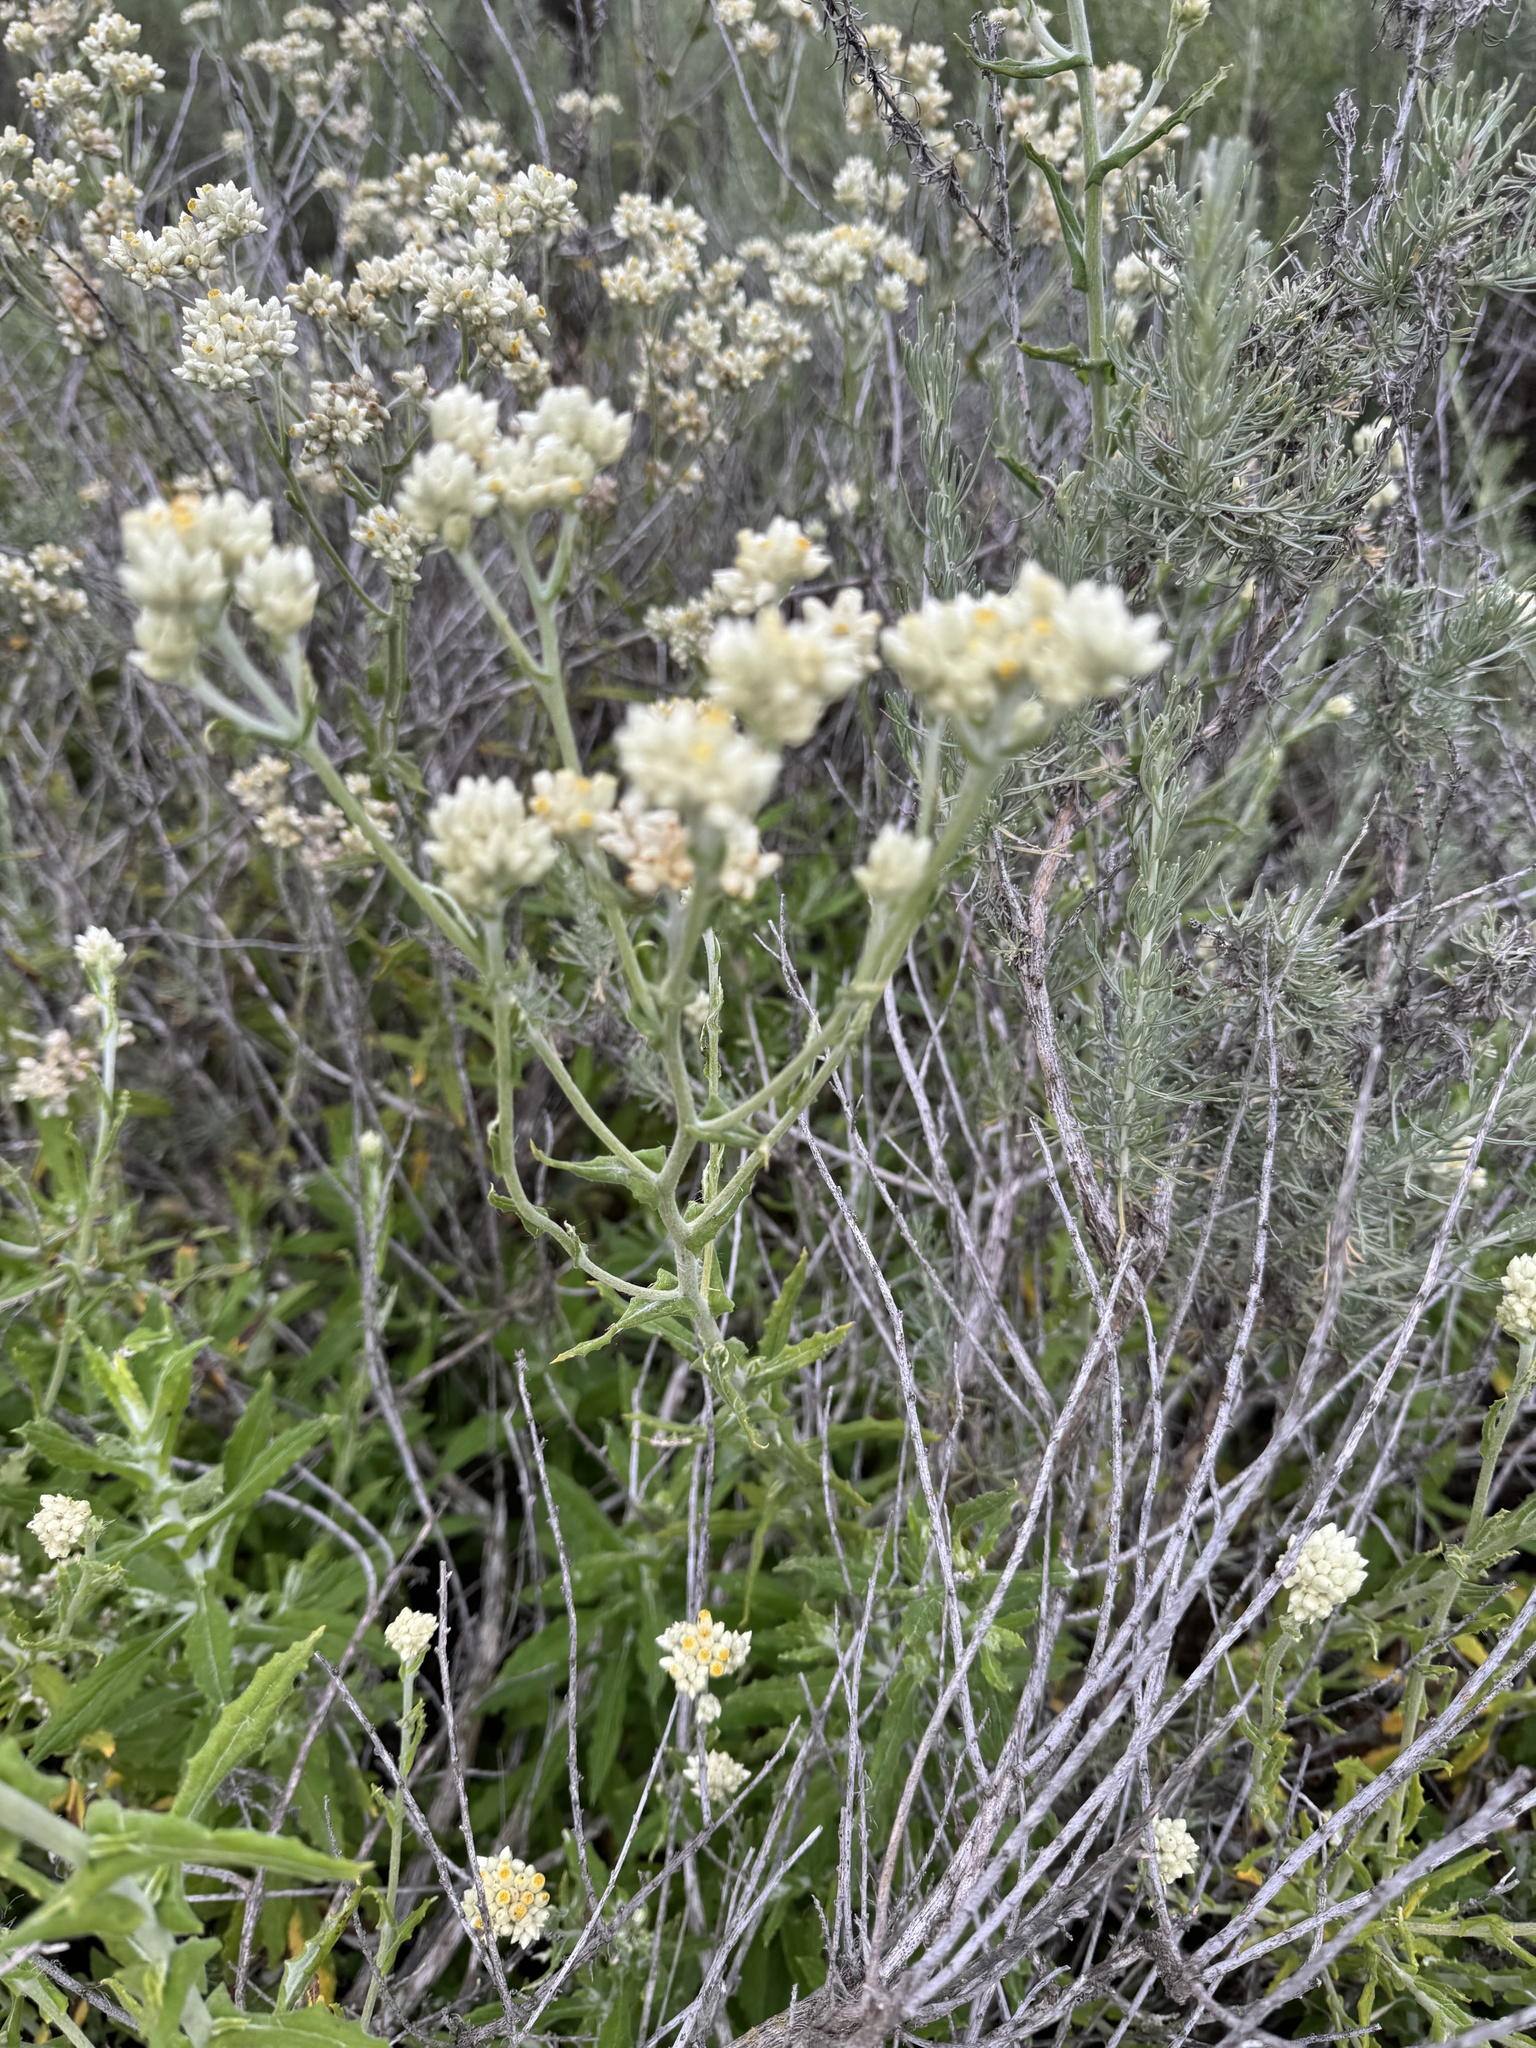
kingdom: Plantae
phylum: Tracheophyta
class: Magnoliopsida
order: Asterales
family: Asteraceae
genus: Pseudognaphalium
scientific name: Pseudognaphalium biolettii
